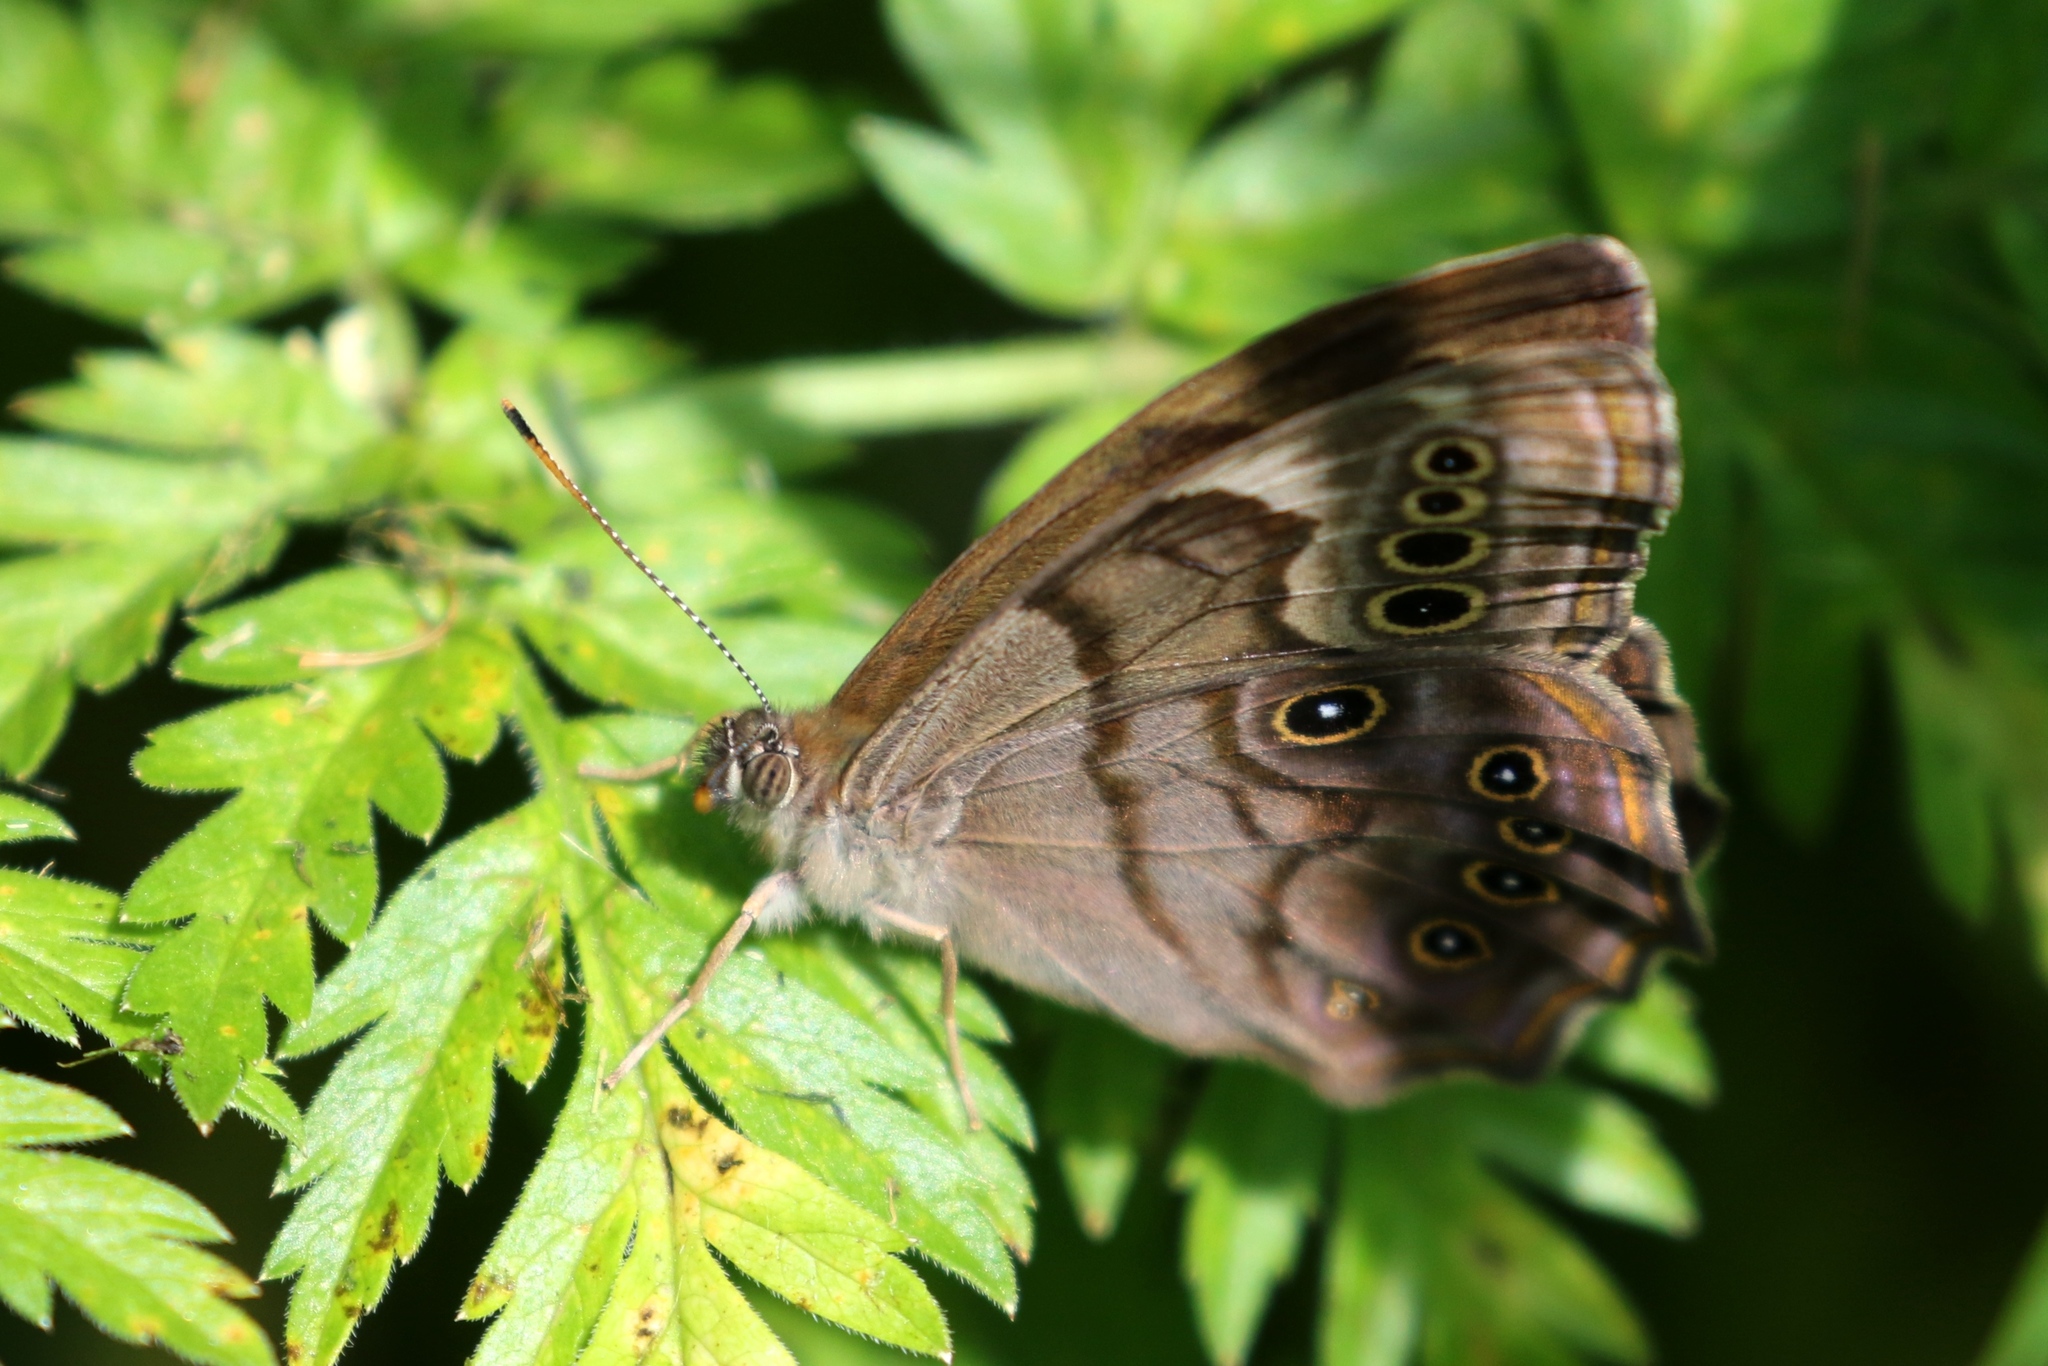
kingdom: Animalia
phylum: Arthropoda
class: Insecta
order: Lepidoptera
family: Nymphalidae
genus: Lethe
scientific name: Lethe anthedon
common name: Northern pearly-eye
